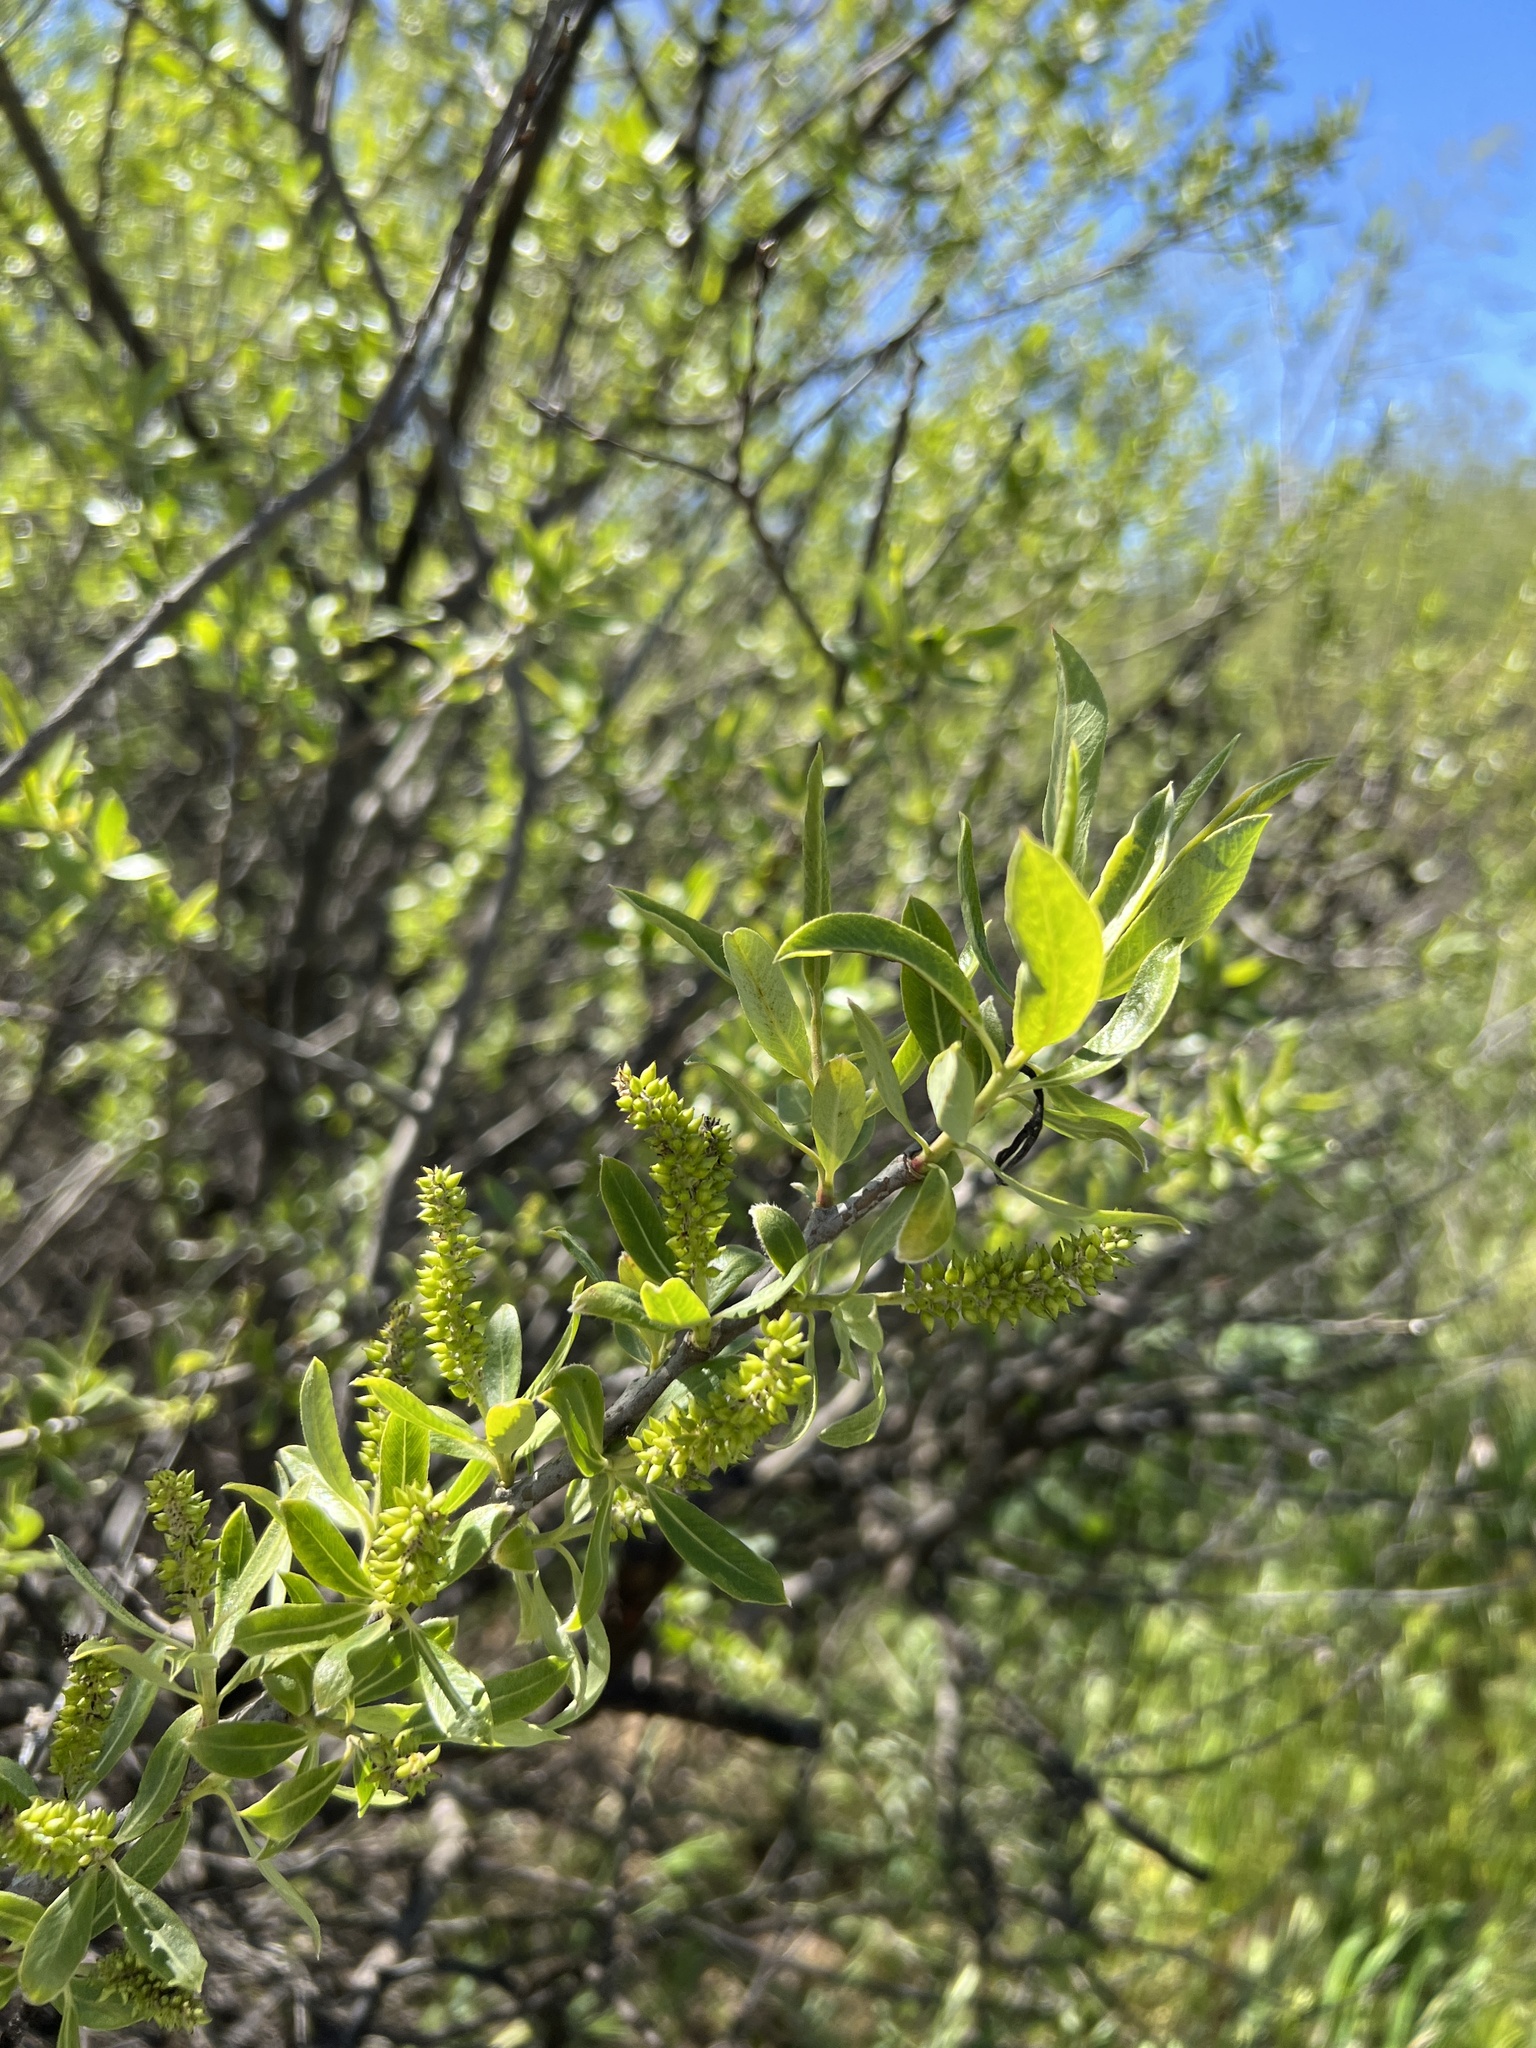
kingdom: Plantae
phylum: Tracheophyta
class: Magnoliopsida
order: Malpighiales
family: Salicaceae
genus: Salix
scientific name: Salix laevigata
